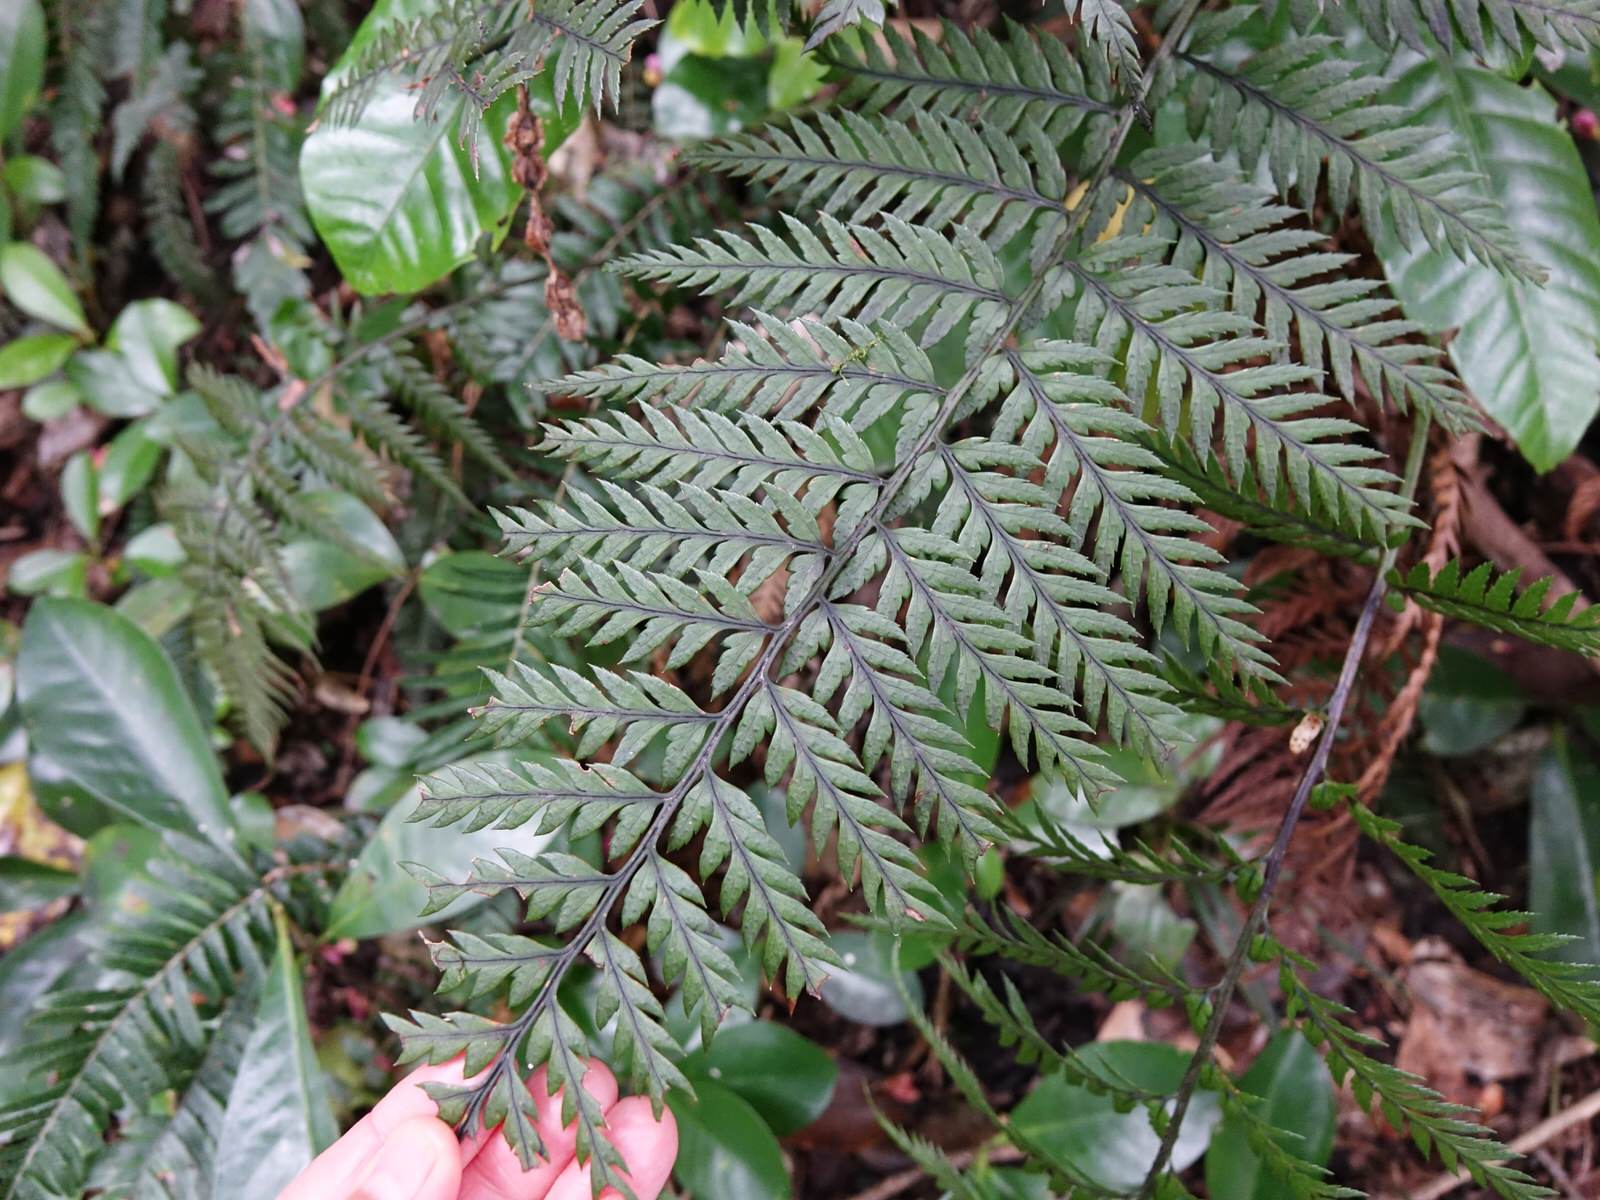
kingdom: Plantae
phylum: Tracheophyta
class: Polypodiopsida
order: Polypodiales
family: Dryopteridaceae
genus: Polystichum
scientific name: Polystichum neozelandicum
